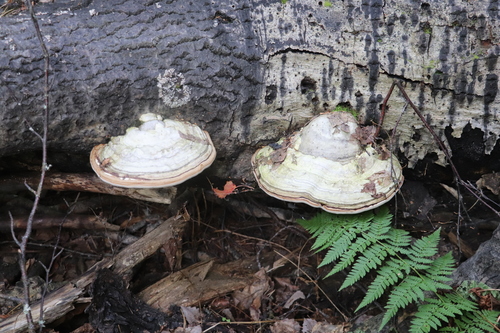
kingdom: Fungi
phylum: Basidiomycota
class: Agaricomycetes
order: Polyporales
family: Polyporaceae
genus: Fomes
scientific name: Fomes fomentarius
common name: Hoof fungus
